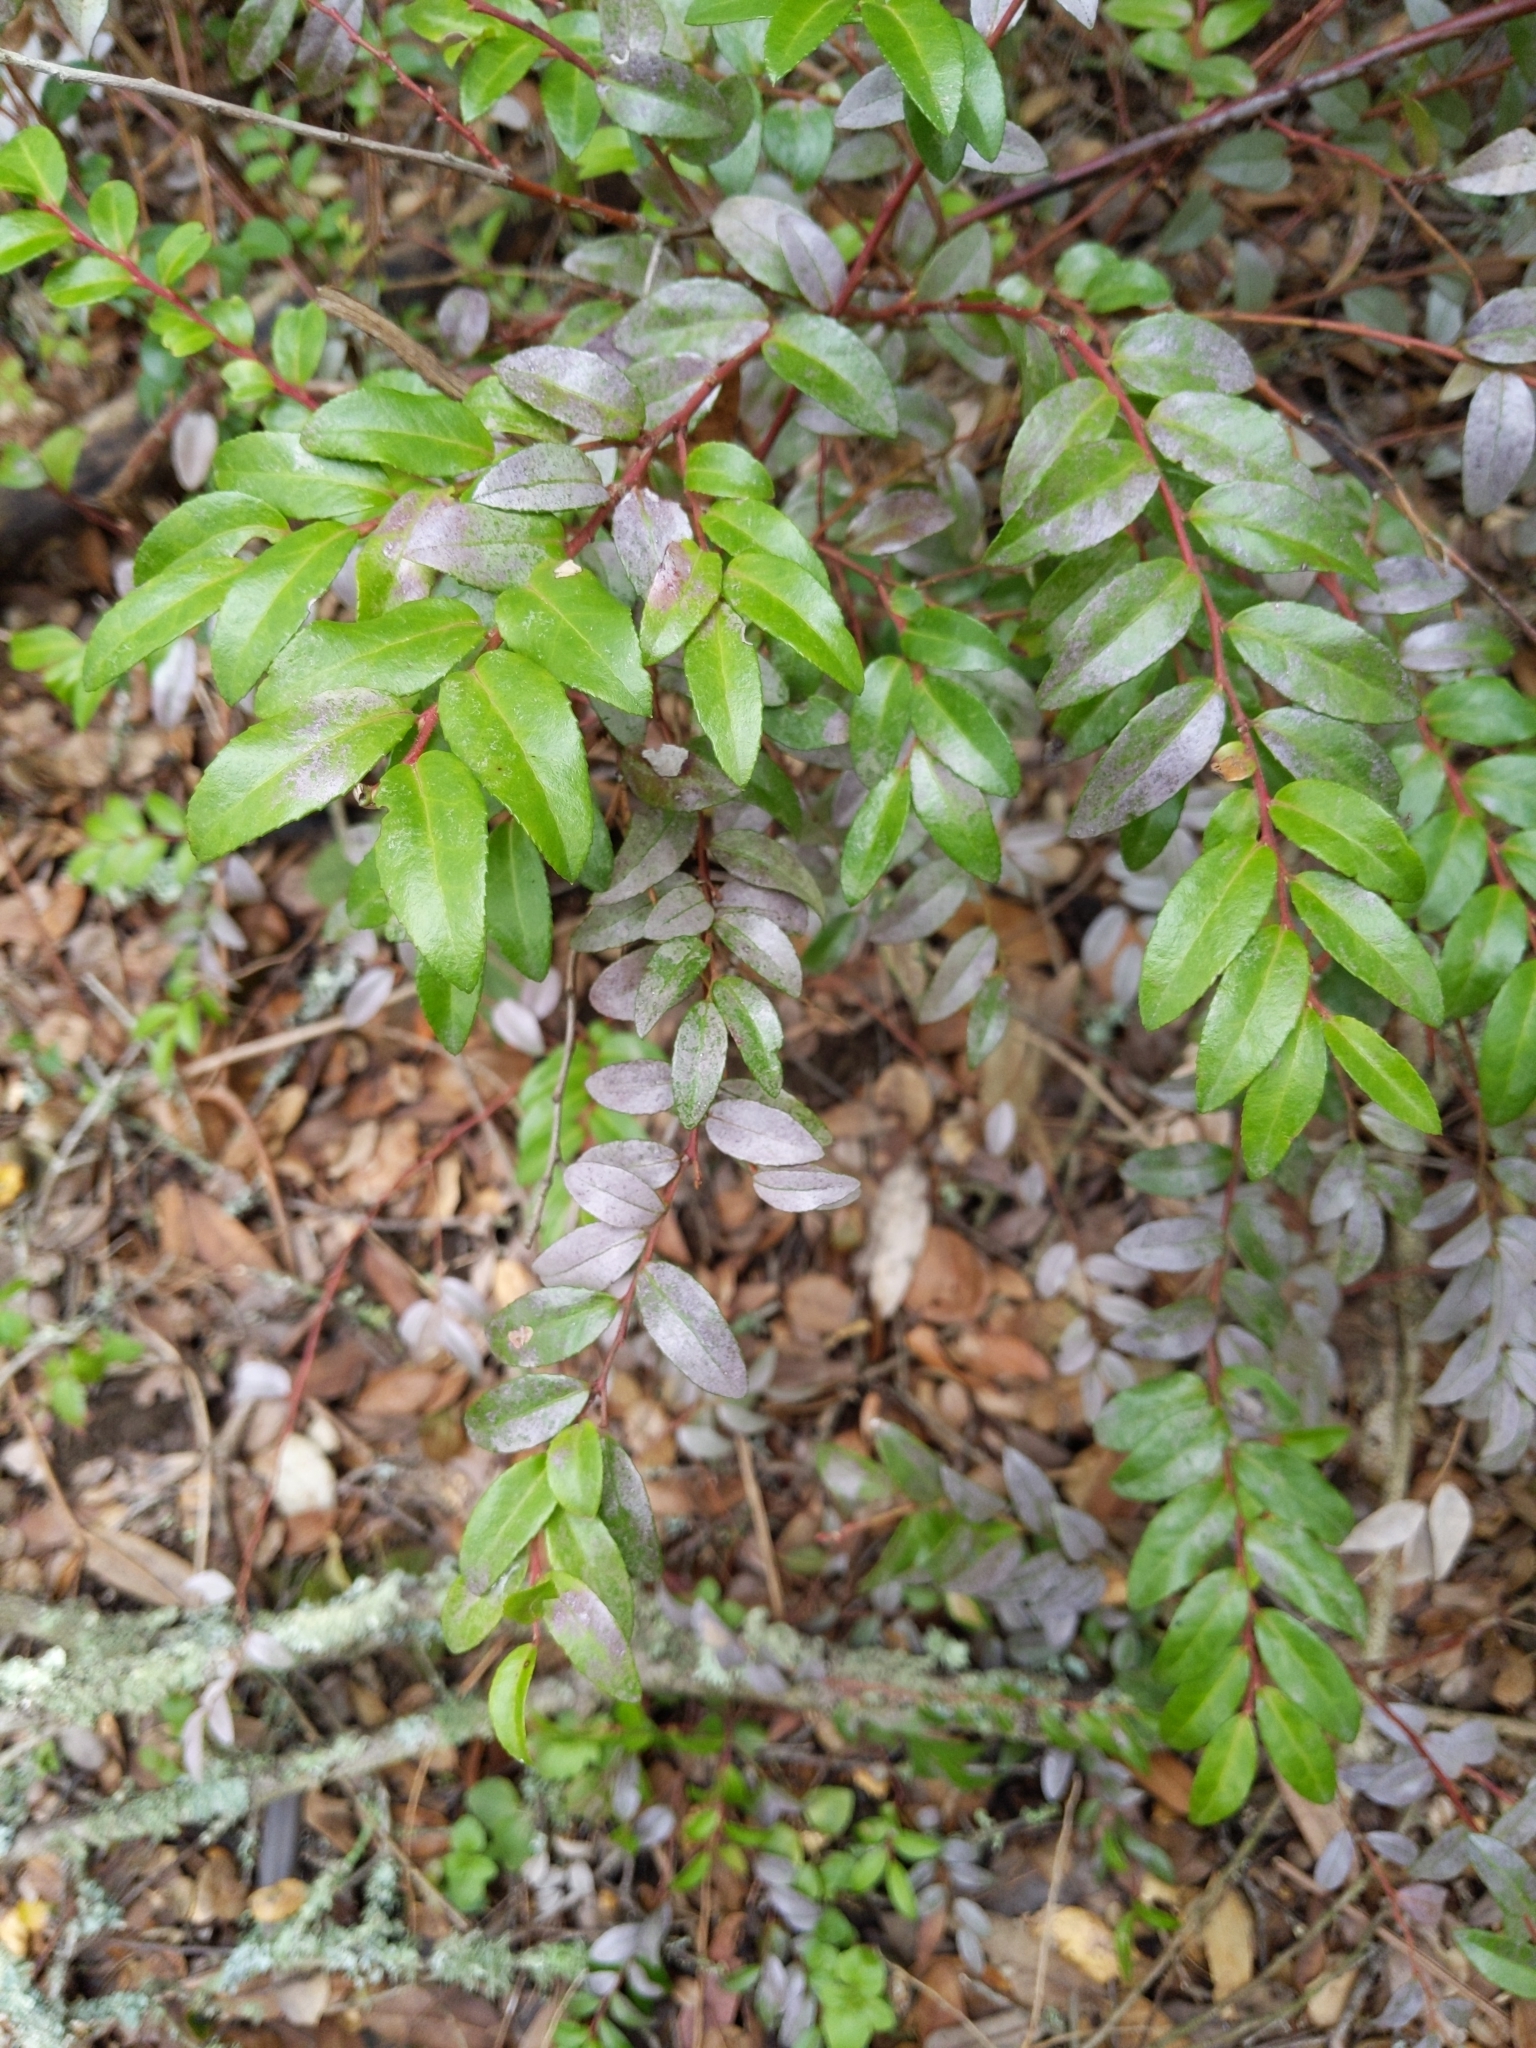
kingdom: Plantae
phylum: Tracheophyta
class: Magnoliopsida
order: Ericales
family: Ericaceae
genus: Vaccinium
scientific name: Vaccinium ovatum
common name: California-huckleberry
